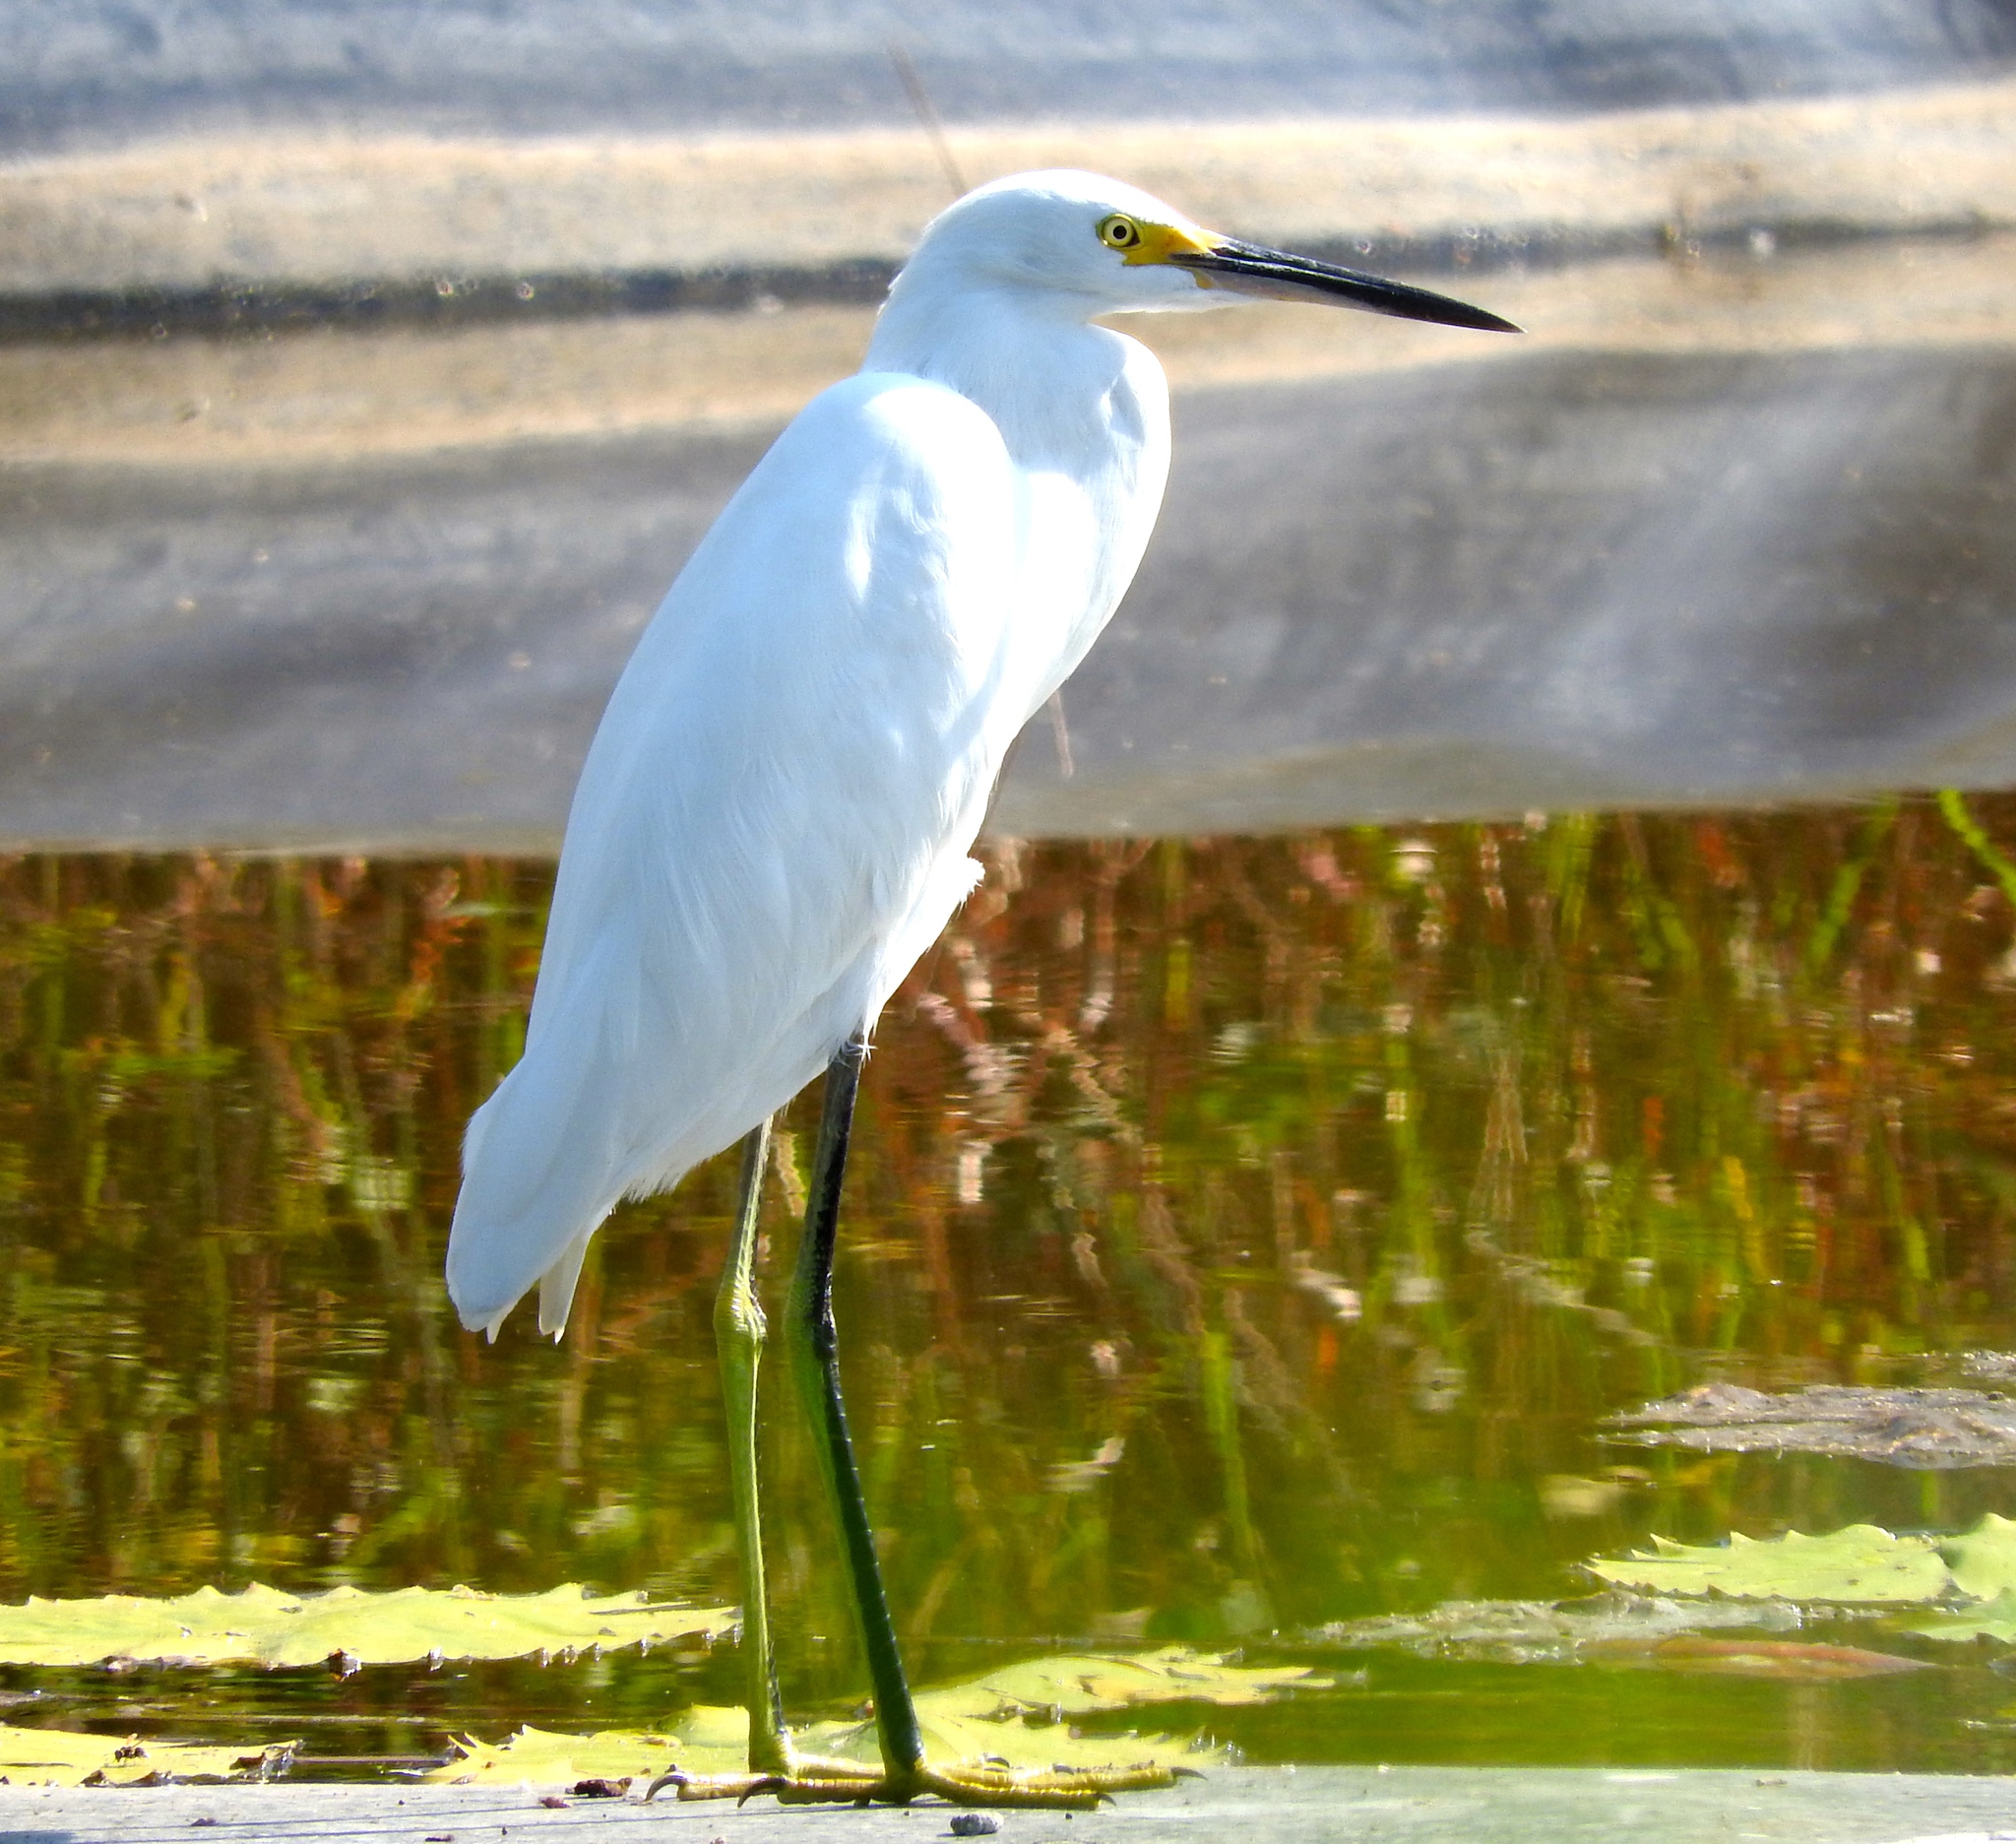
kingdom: Animalia
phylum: Chordata
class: Aves
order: Pelecaniformes
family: Ardeidae
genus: Egretta
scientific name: Egretta thula
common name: Snowy egret
